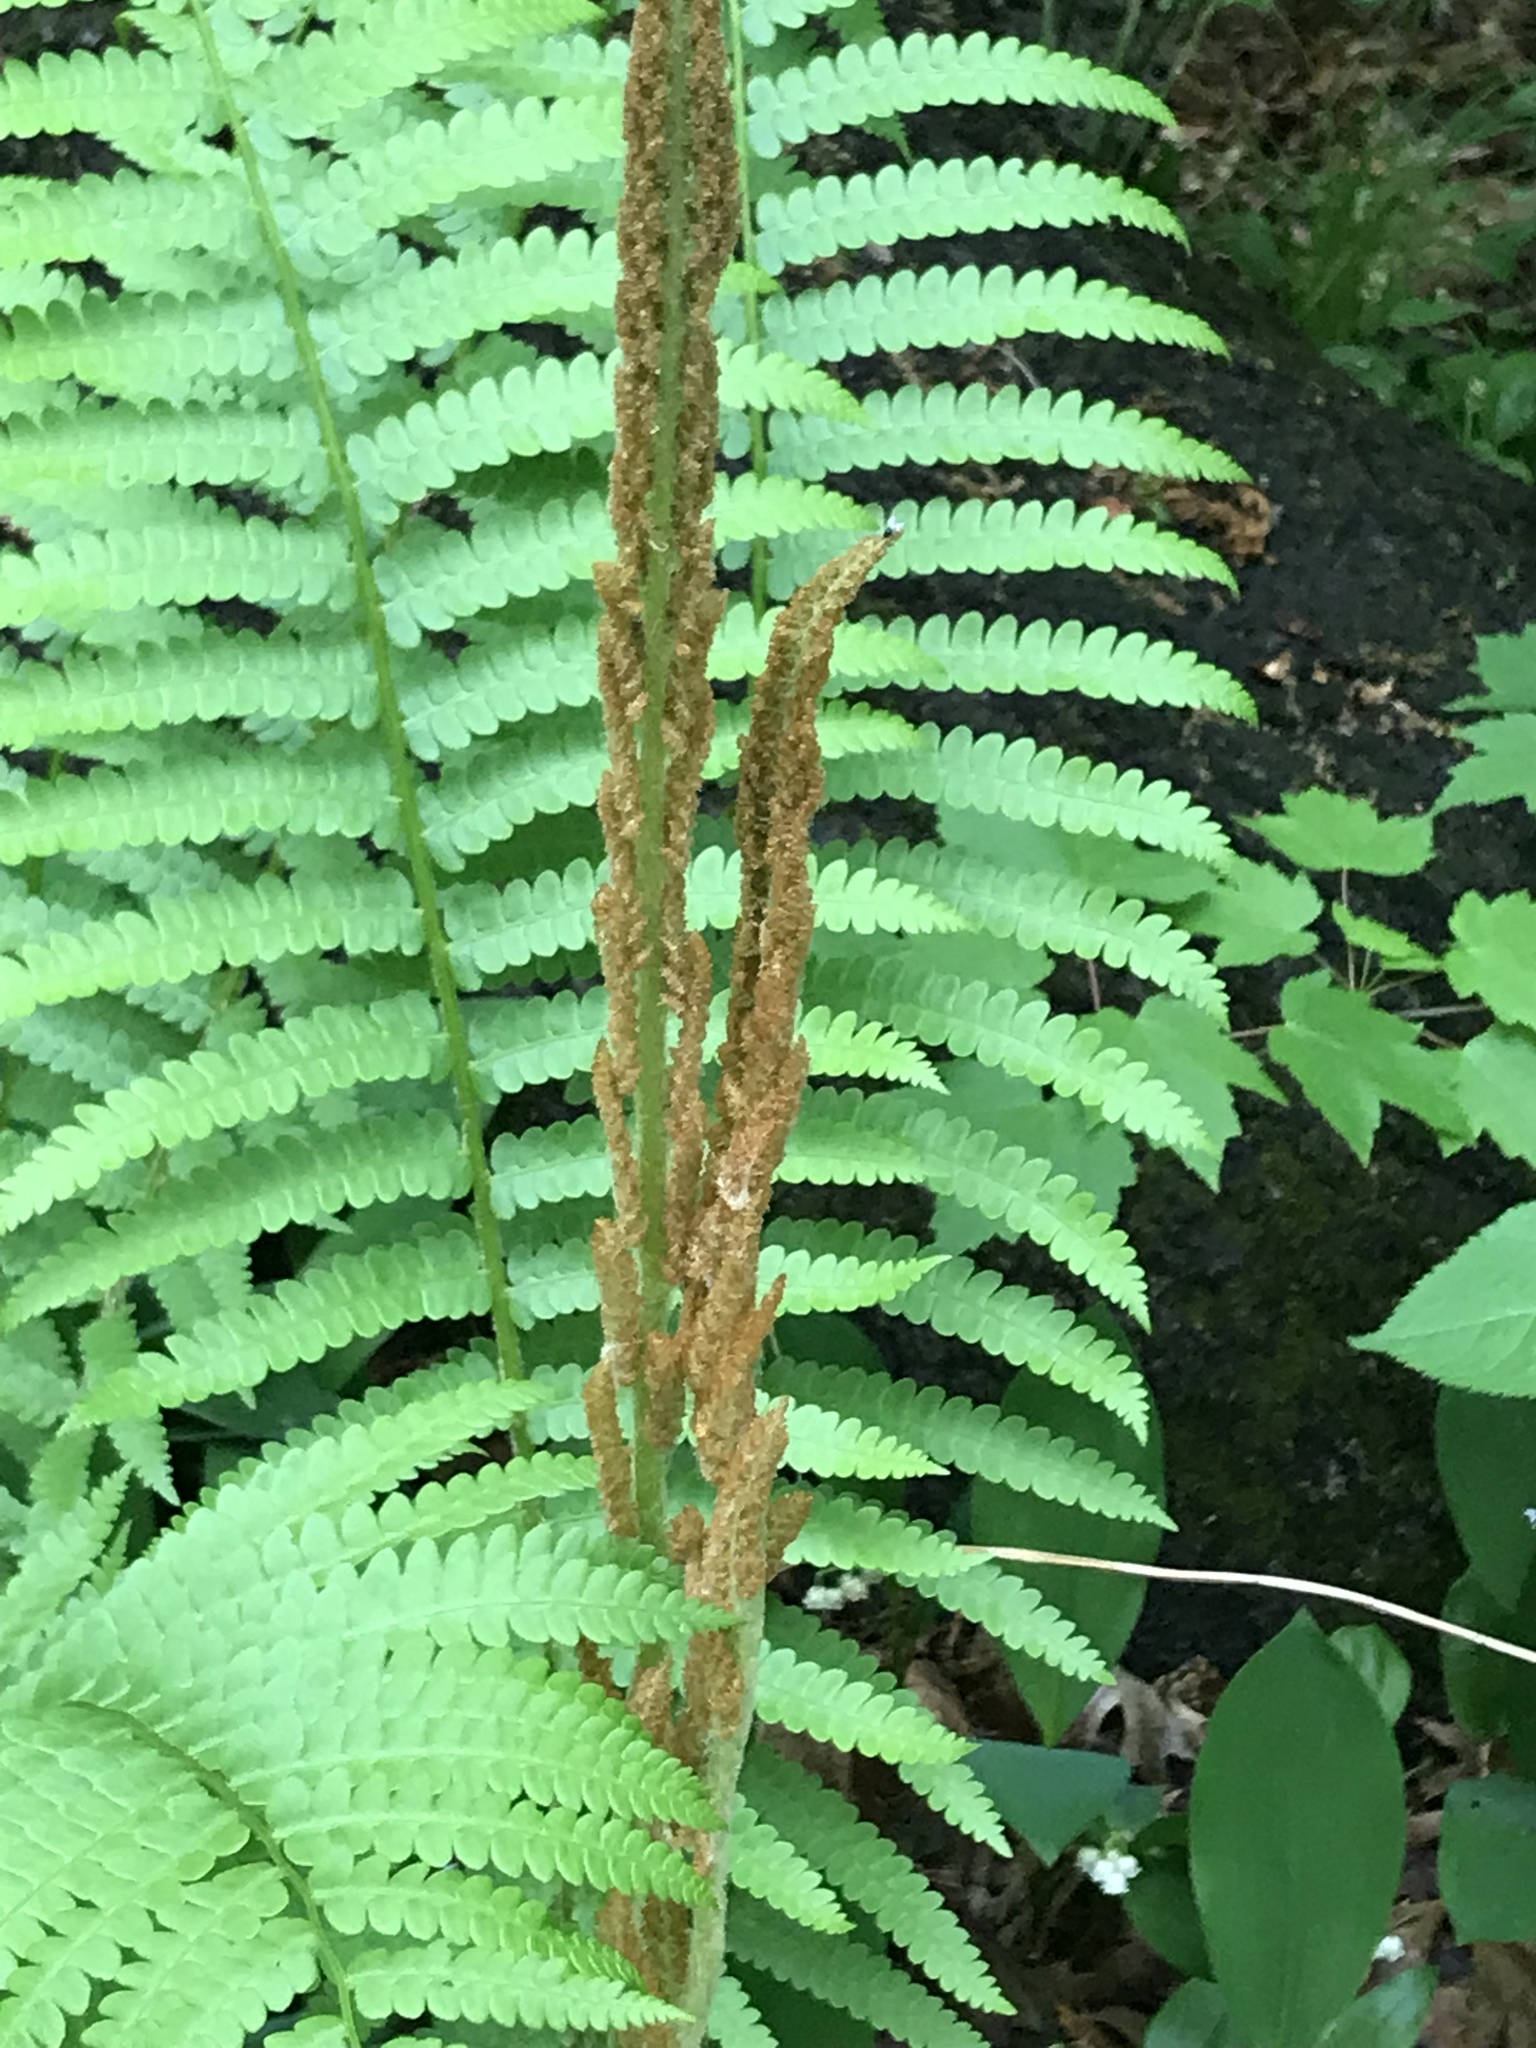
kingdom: Plantae
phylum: Tracheophyta
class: Polypodiopsida
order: Osmundales
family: Osmundaceae
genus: Osmundastrum
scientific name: Osmundastrum cinnamomeum
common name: Cinnamon fern
